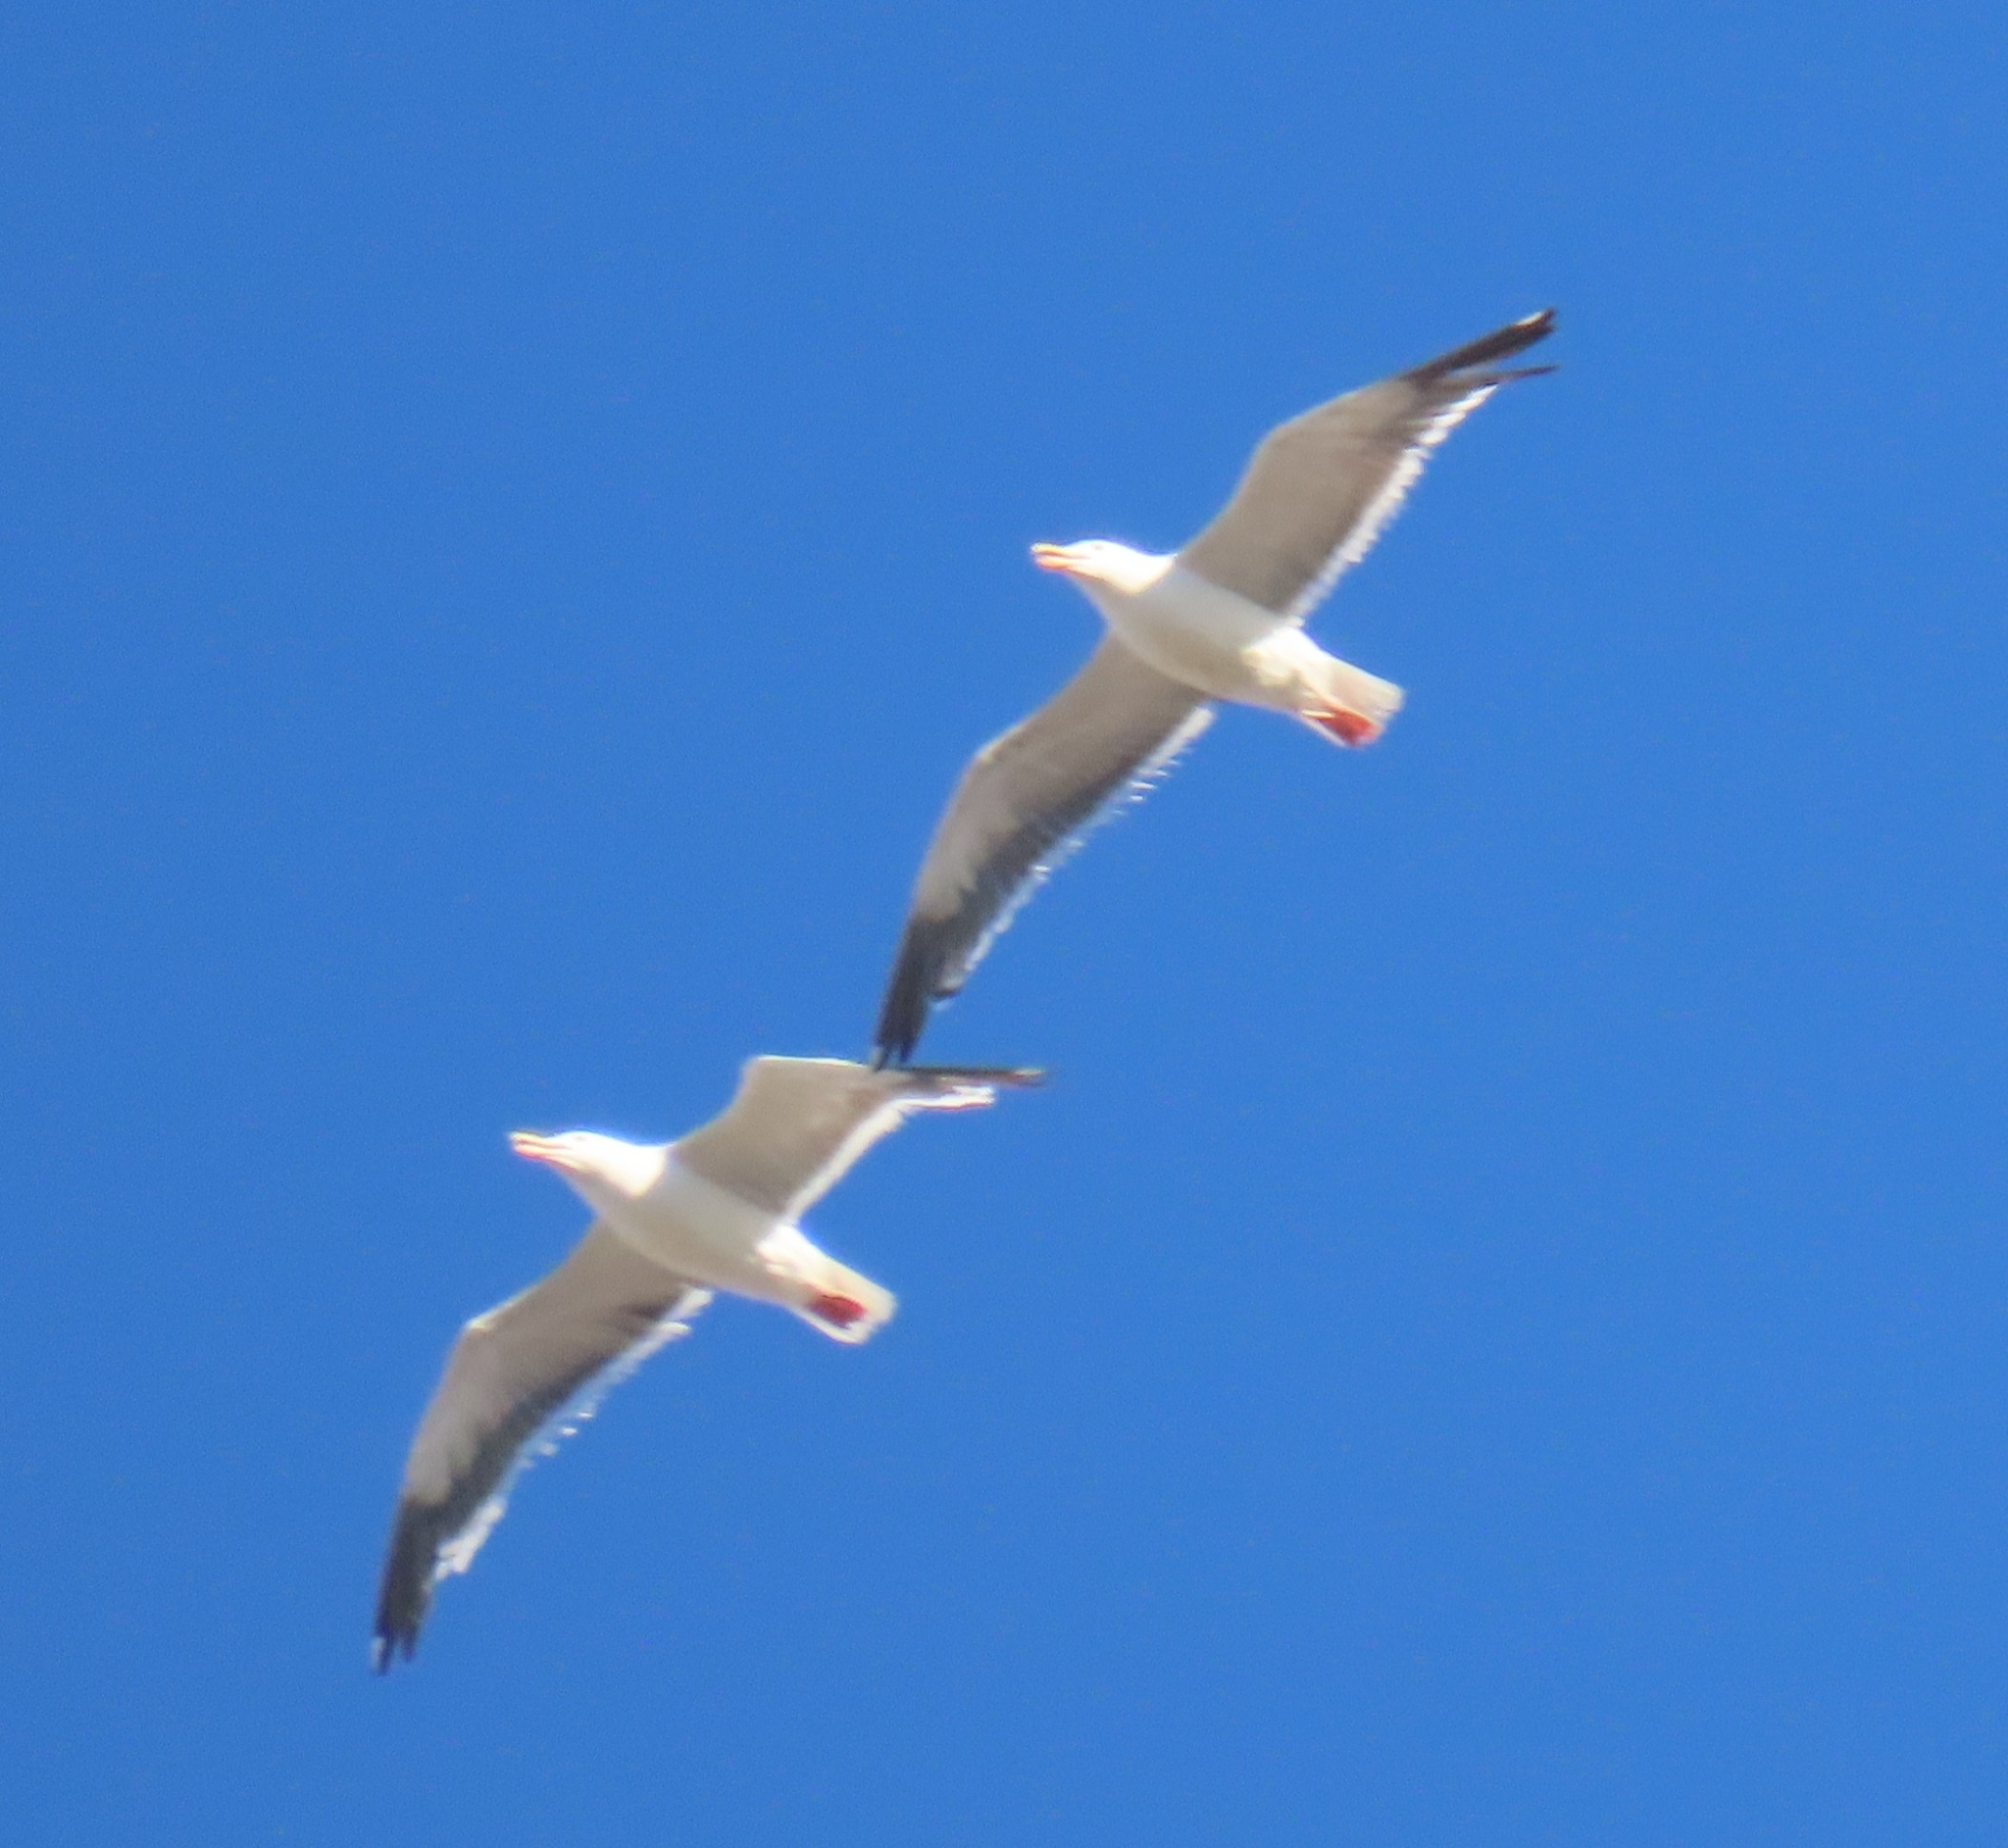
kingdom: Animalia
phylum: Chordata
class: Aves
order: Charadriiformes
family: Laridae
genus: Larus
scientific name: Larus occidentalis
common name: Western gull
